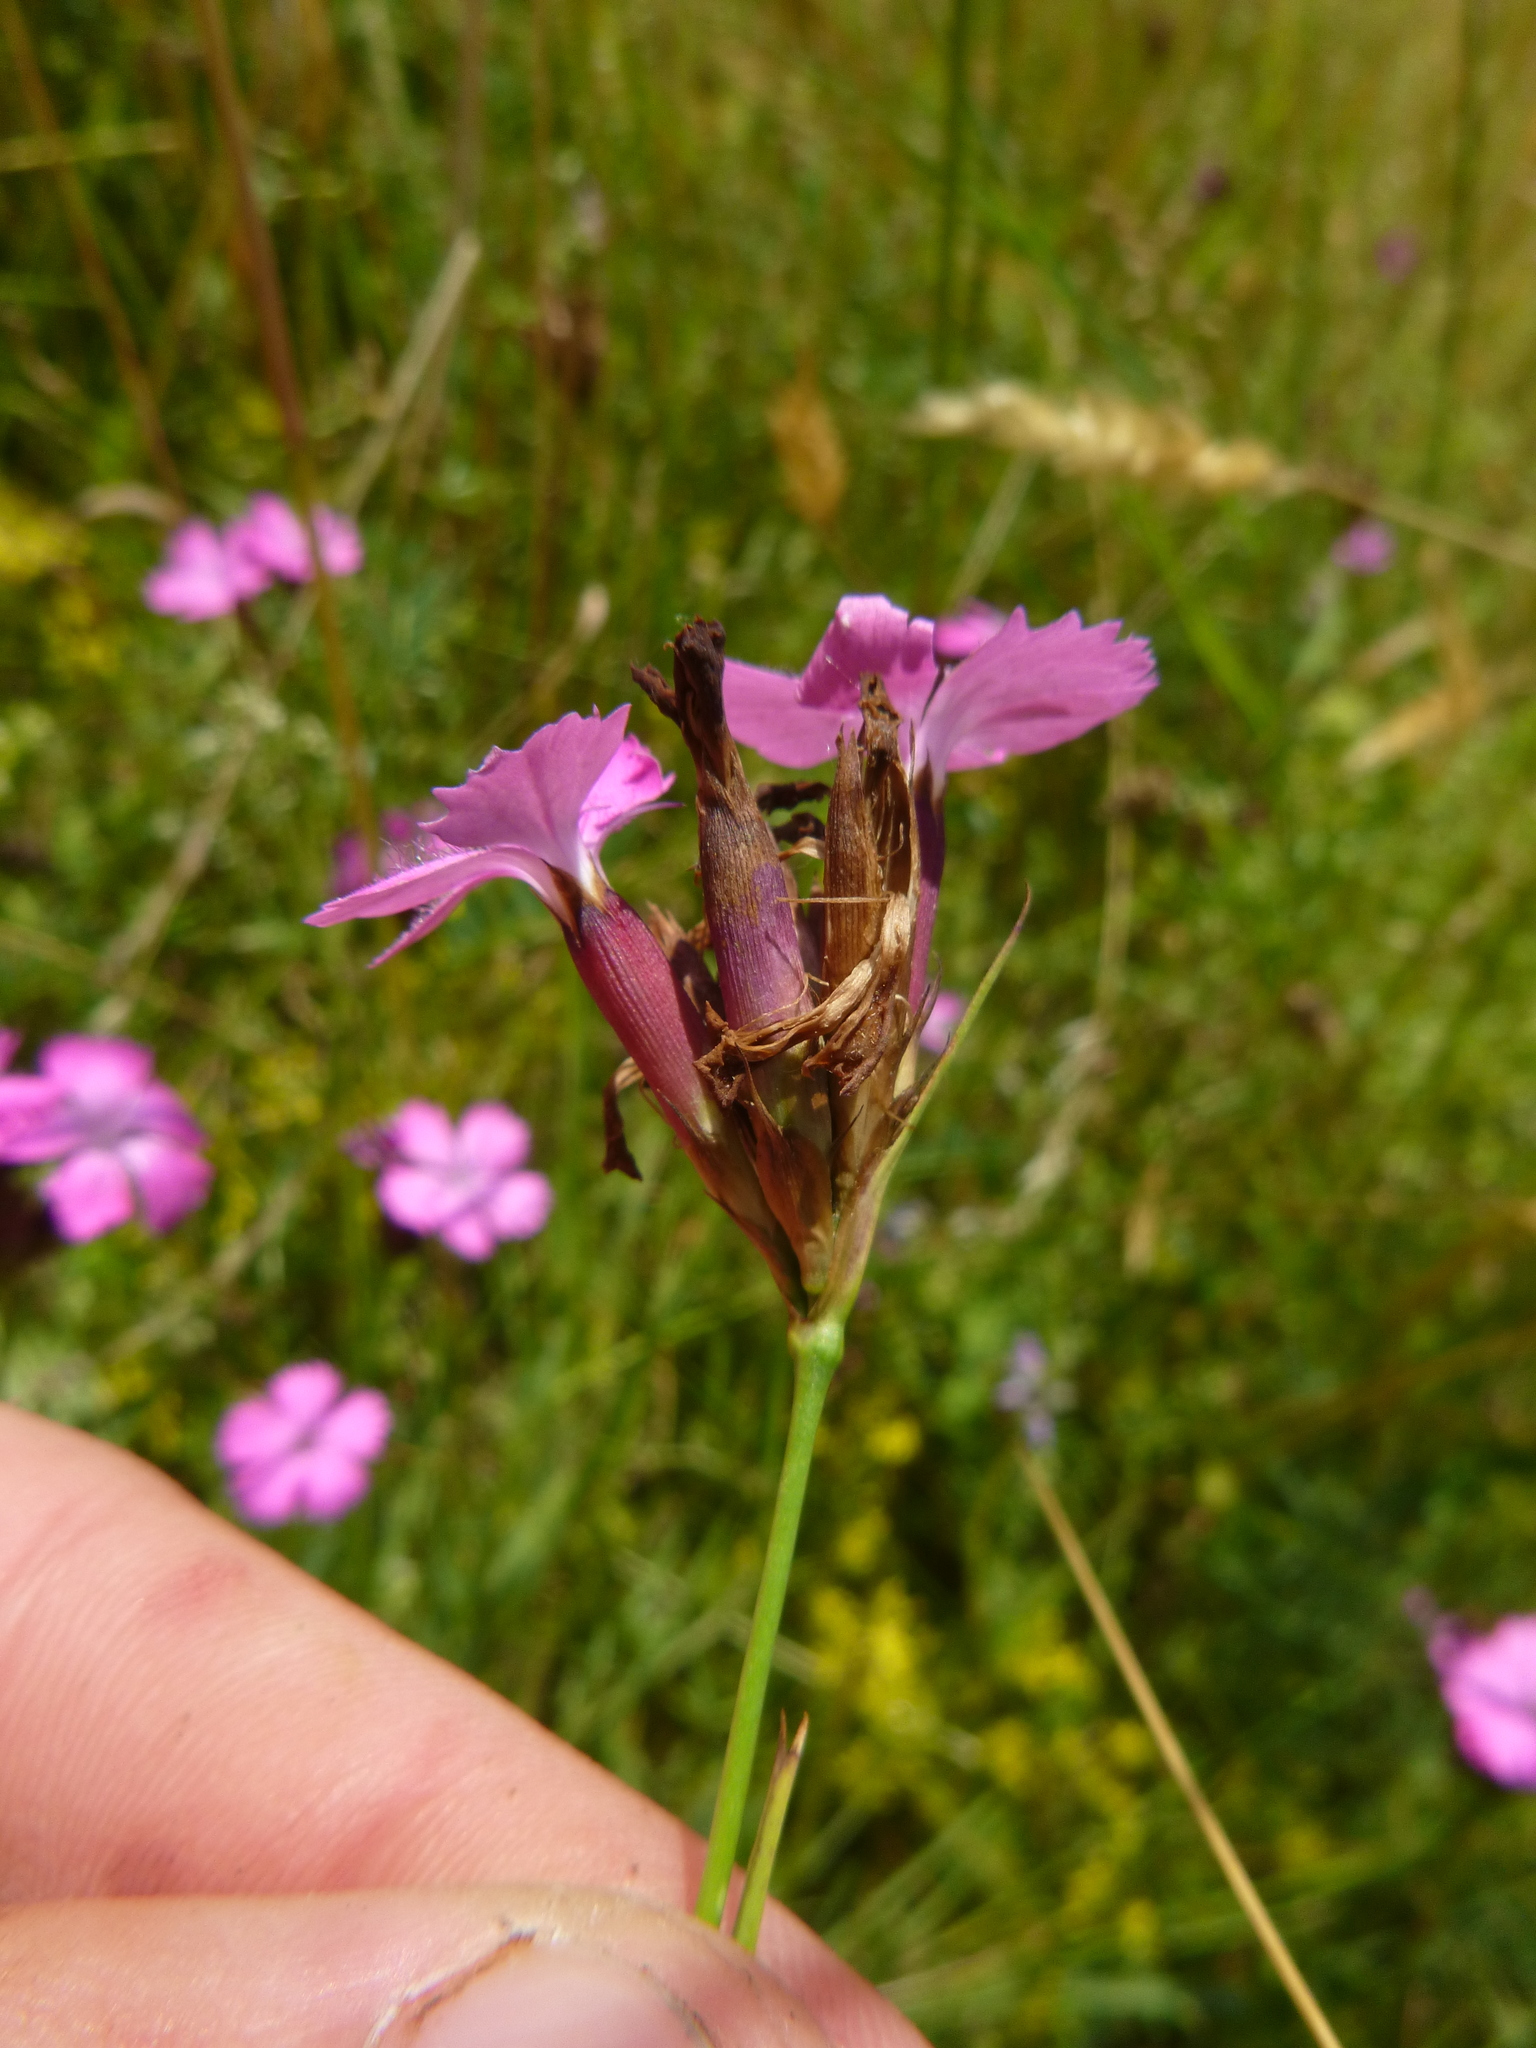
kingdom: Plantae
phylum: Tracheophyta
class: Magnoliopsida
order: Caryophyllales
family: Caryophyllaceae
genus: Dianthus
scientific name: Dianthus carthusianorum
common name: Carthusian pink
